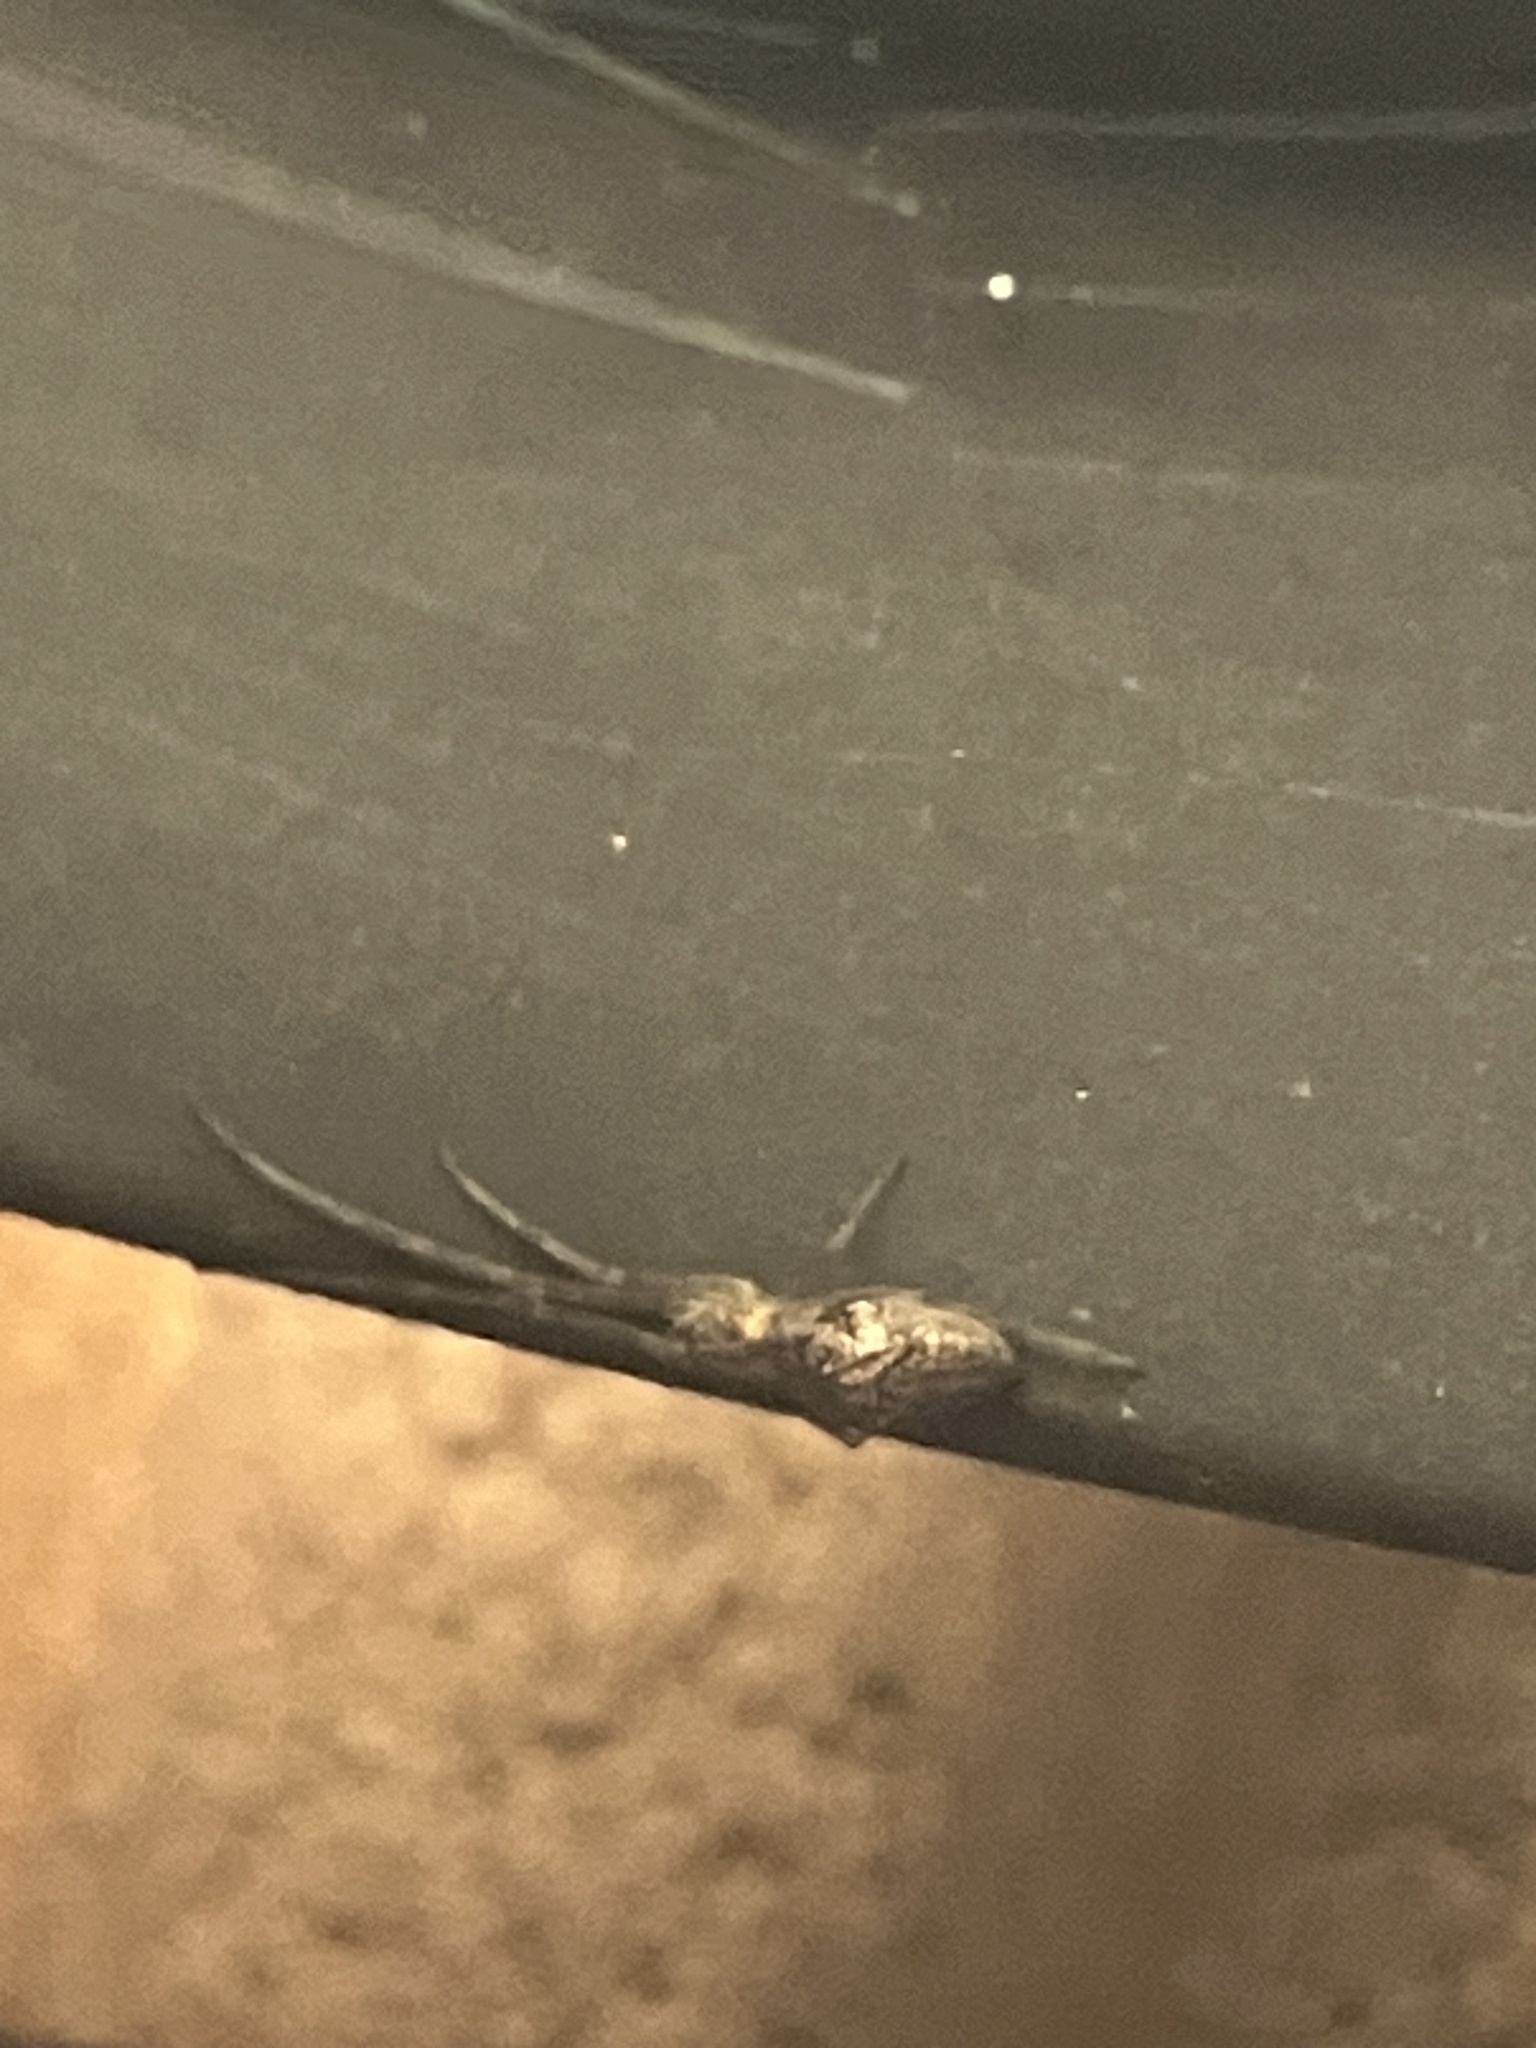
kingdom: Animalia
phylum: Arthropoda
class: Arachnida
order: Araneae
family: Tetragnathidae
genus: Tetragnatha
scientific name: Tetragnatha
